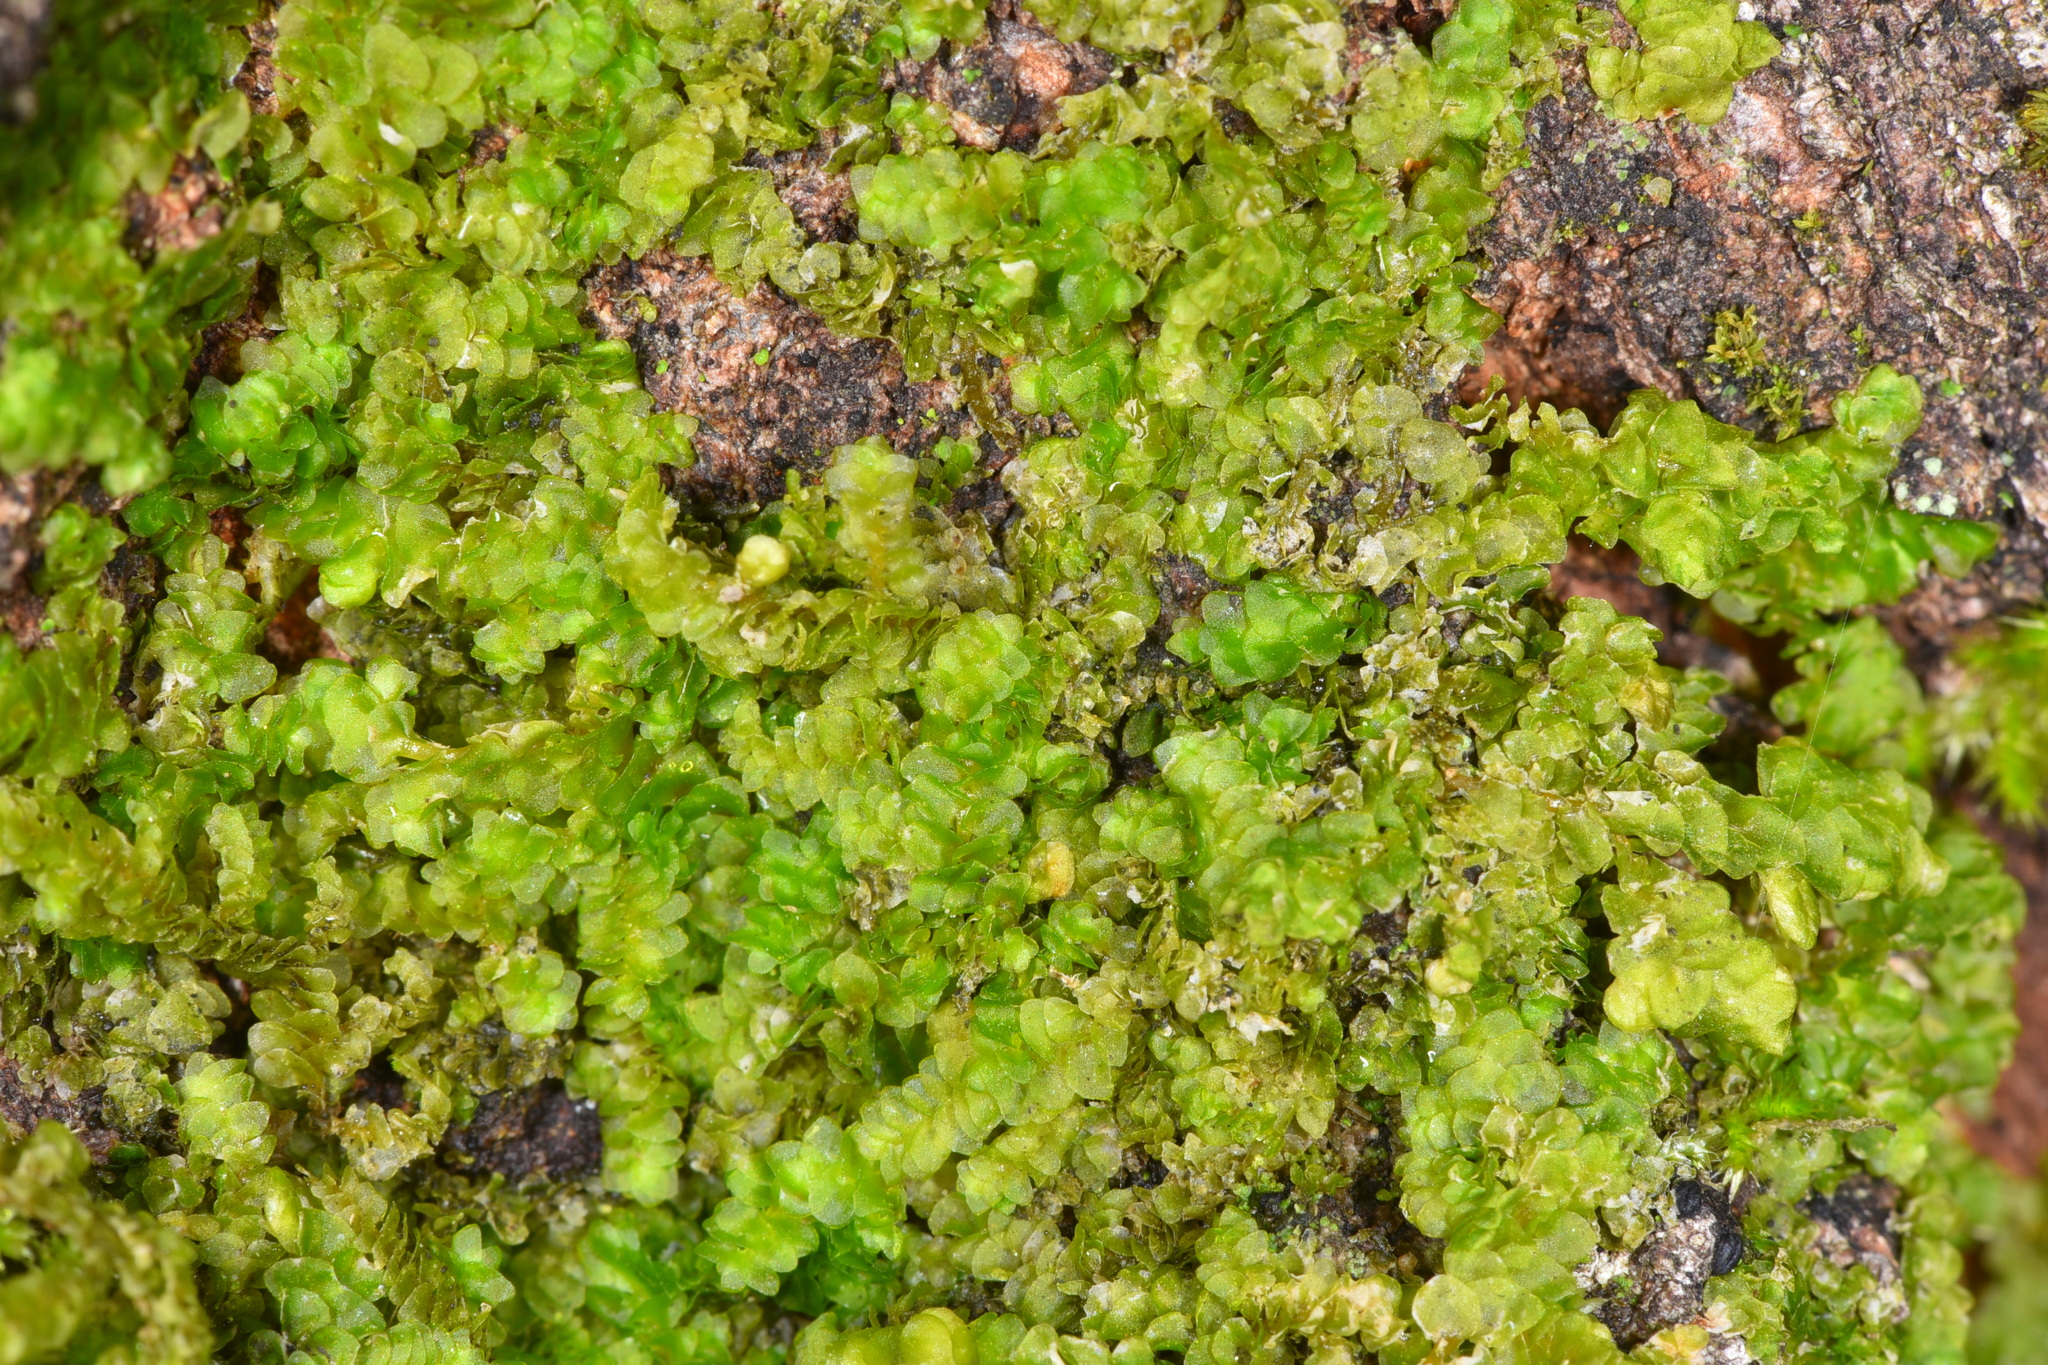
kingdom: Plantae
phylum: Marchantiophyta
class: Jungermanniopsida
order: Porellales
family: Porellaceae
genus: Porella
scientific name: Porella cordaeana
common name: Cliff scalewort
